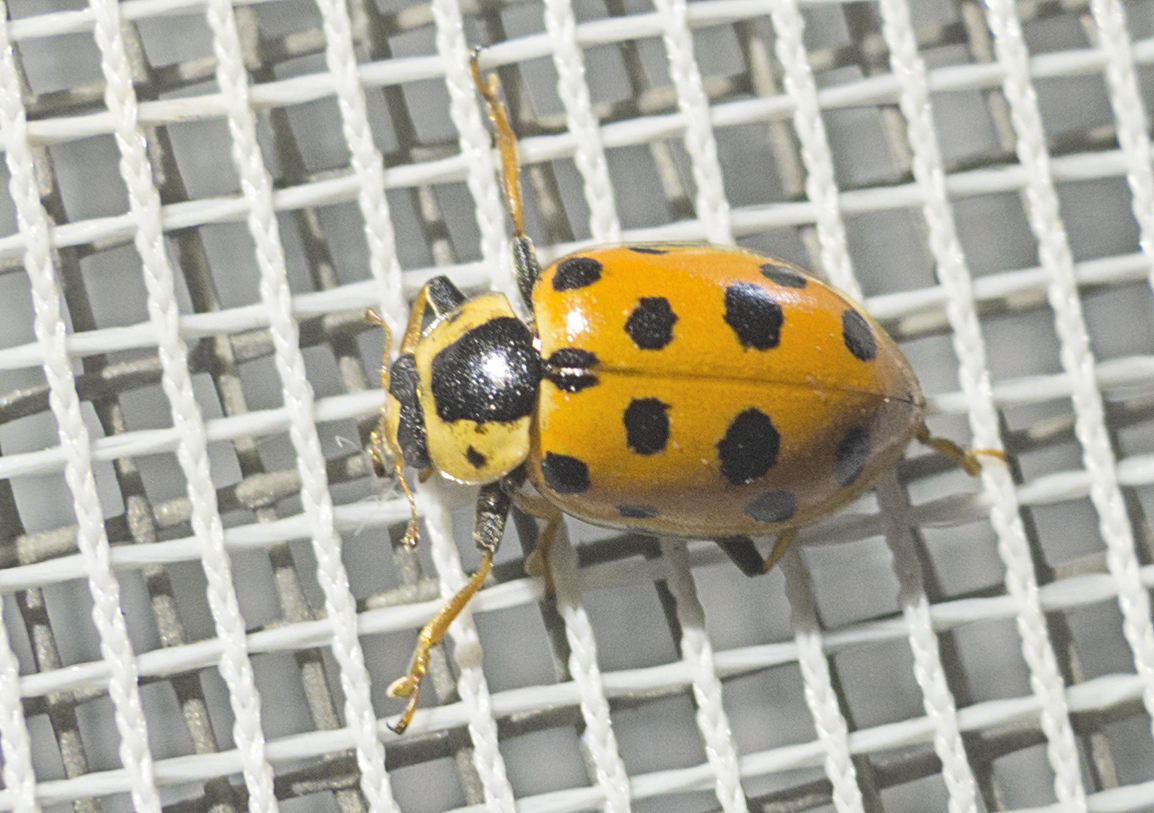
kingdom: Animalia
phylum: Arthropoda
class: Insecta
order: Coleoptera
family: Coccinellidae
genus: Hippodamia
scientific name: Hippodamia tredecimpunctata
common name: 13-spot ladybird
